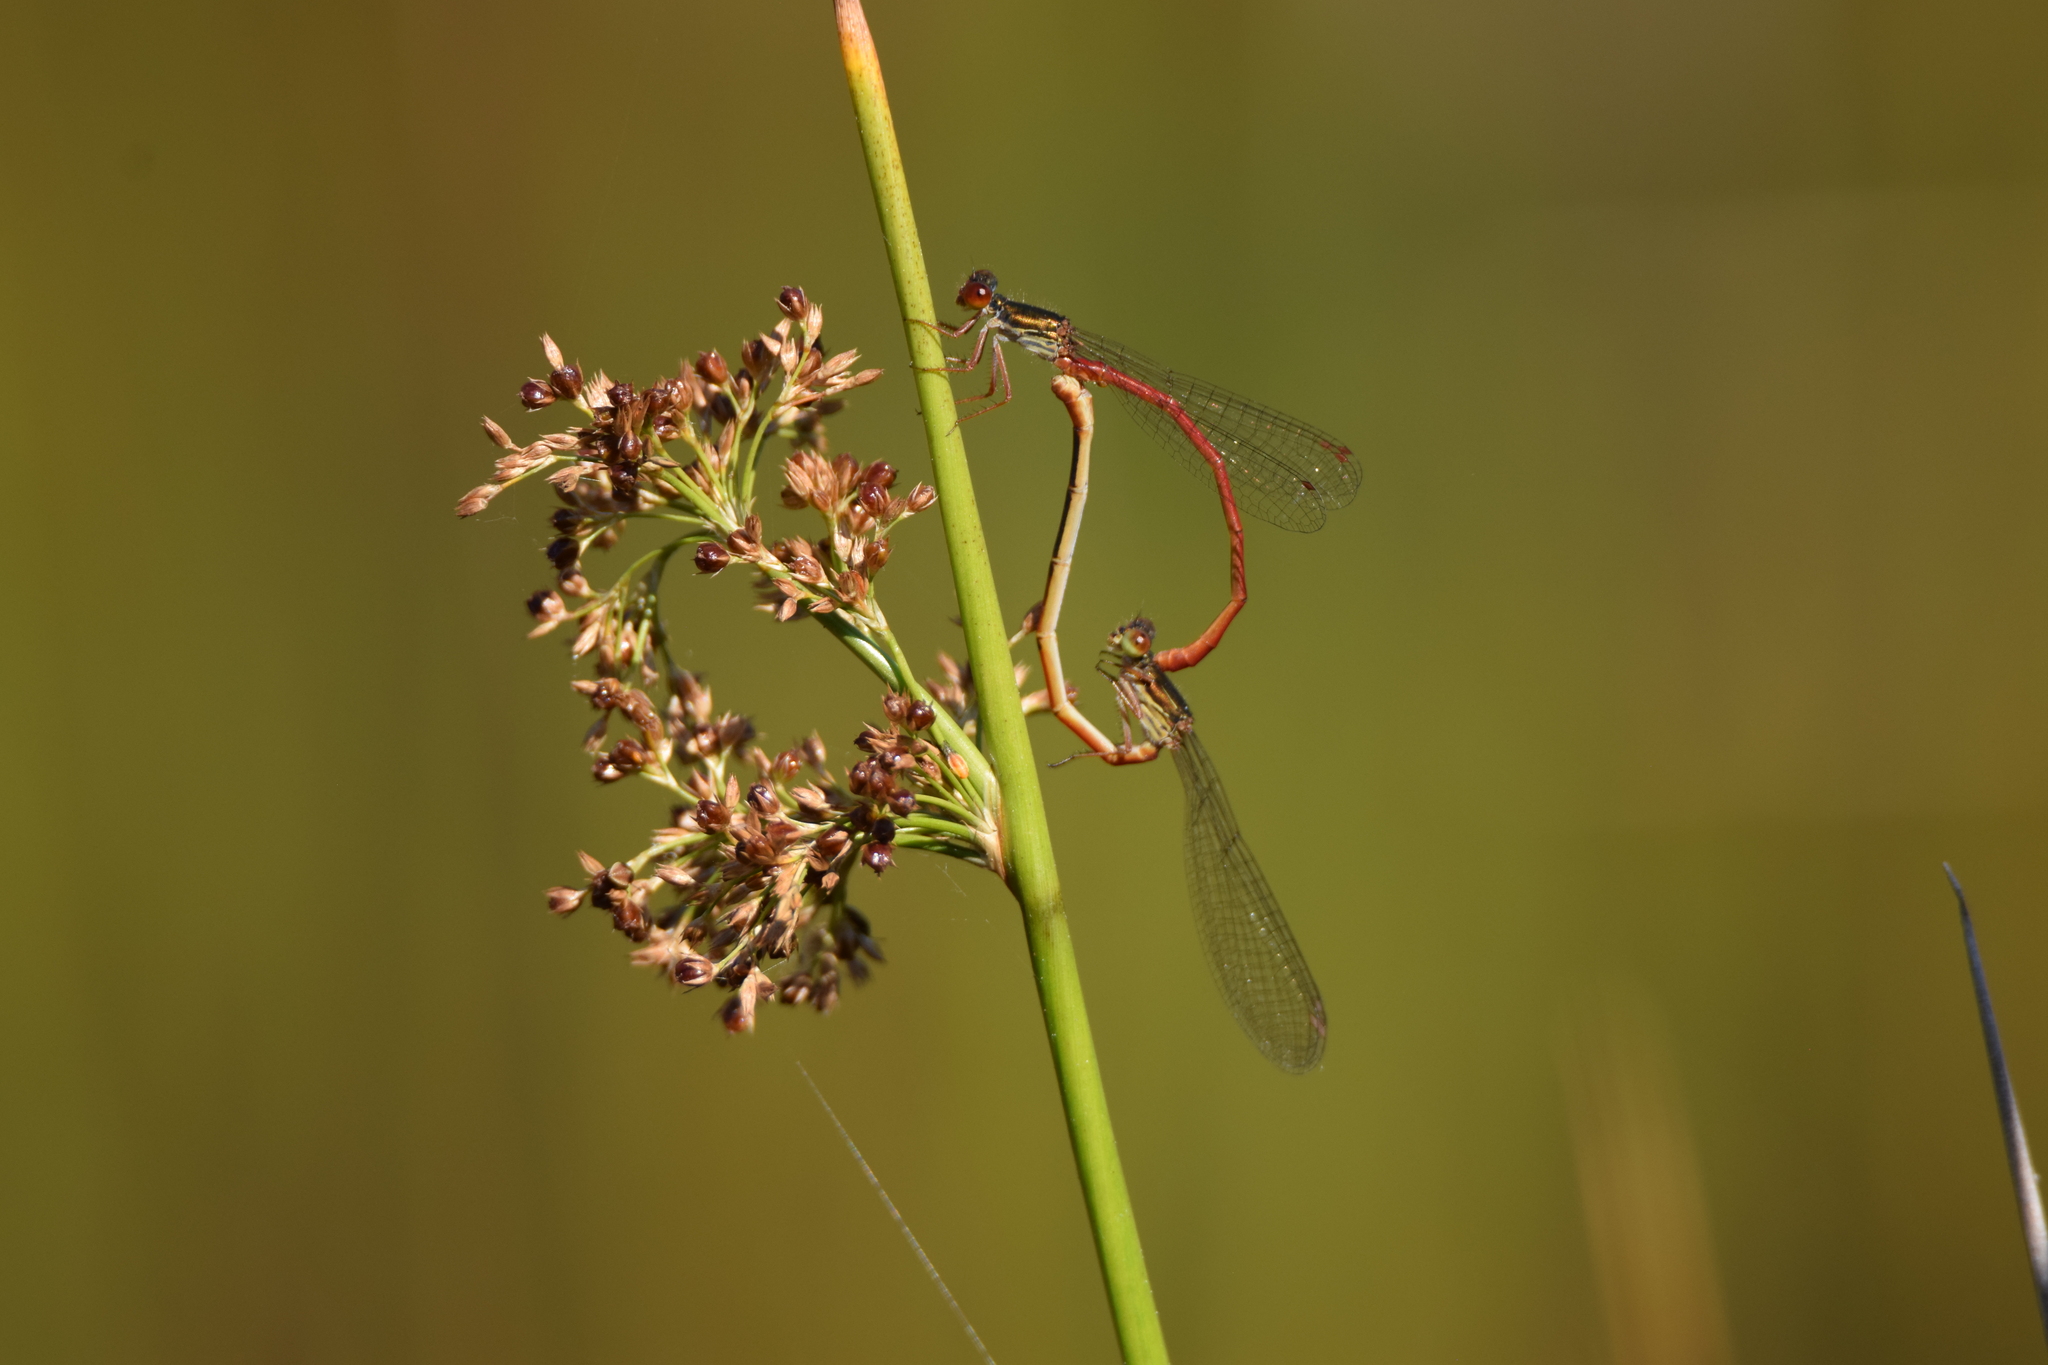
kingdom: Animalia
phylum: Arthropoda
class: Insecta
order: Odonata
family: Coenagrionidae
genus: Ceriagrion
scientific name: Ceriagrion tenellum
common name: Small red damselfly
